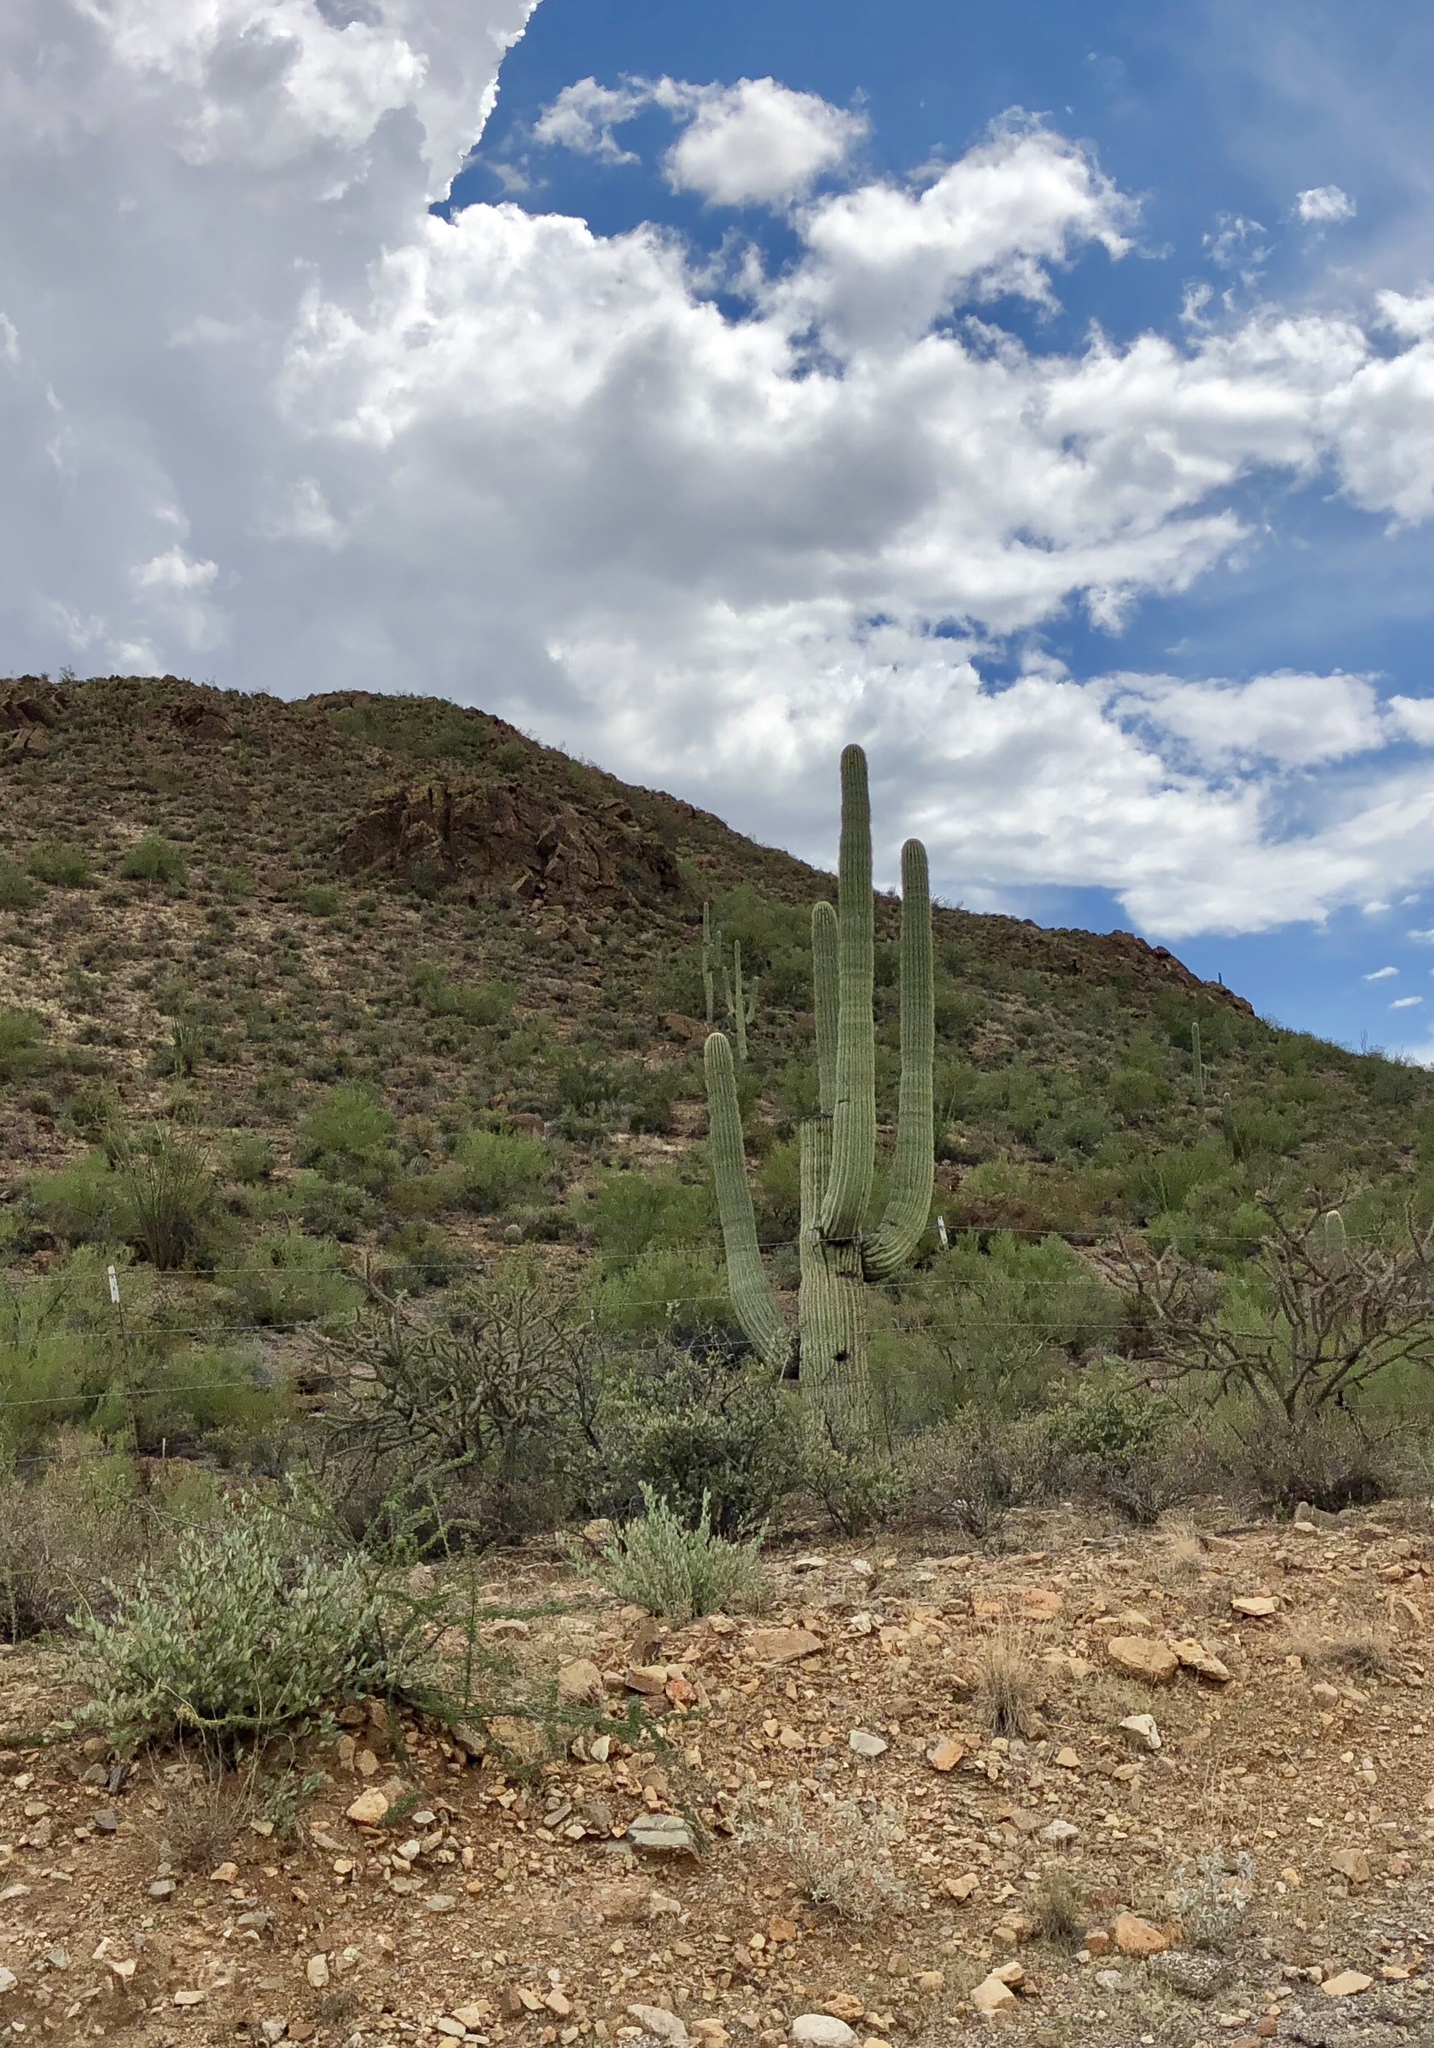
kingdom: Plantae
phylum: Tracheophyta
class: Magnoliopsida
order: Caryophyllales
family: Cactaceae
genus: Carnegiea
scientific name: Carnegiea gigantea
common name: Saguaro
